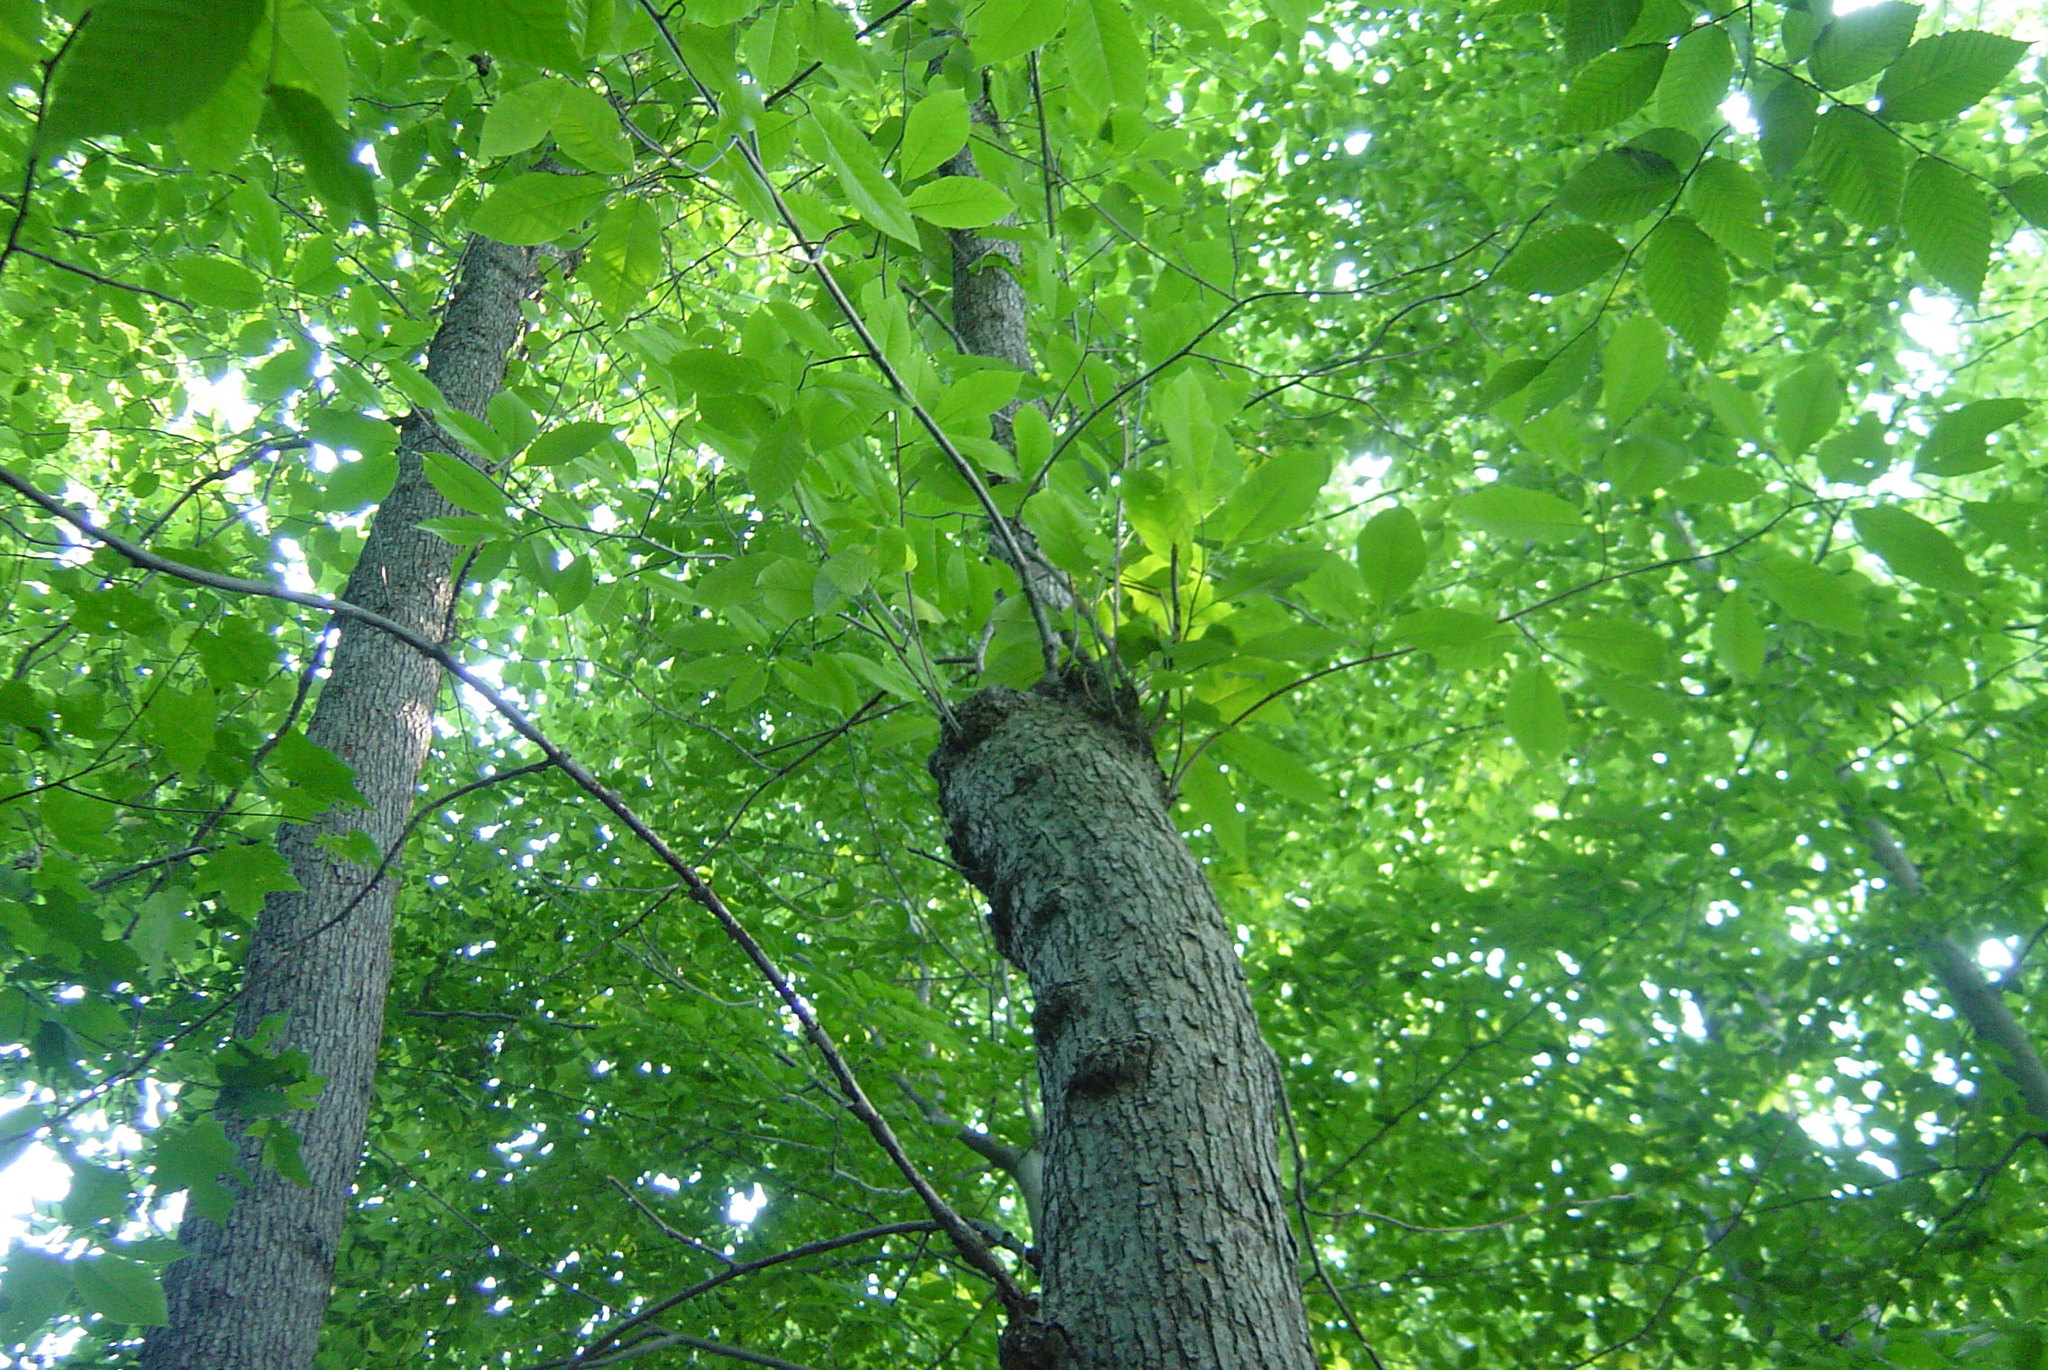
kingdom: Plantae
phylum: Tracheophyta
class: Magnoliopsida
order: Magnoliales
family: Magnoliaceae
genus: Magnolia
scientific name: Magnolia acuminata
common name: Cucumber magnolia
